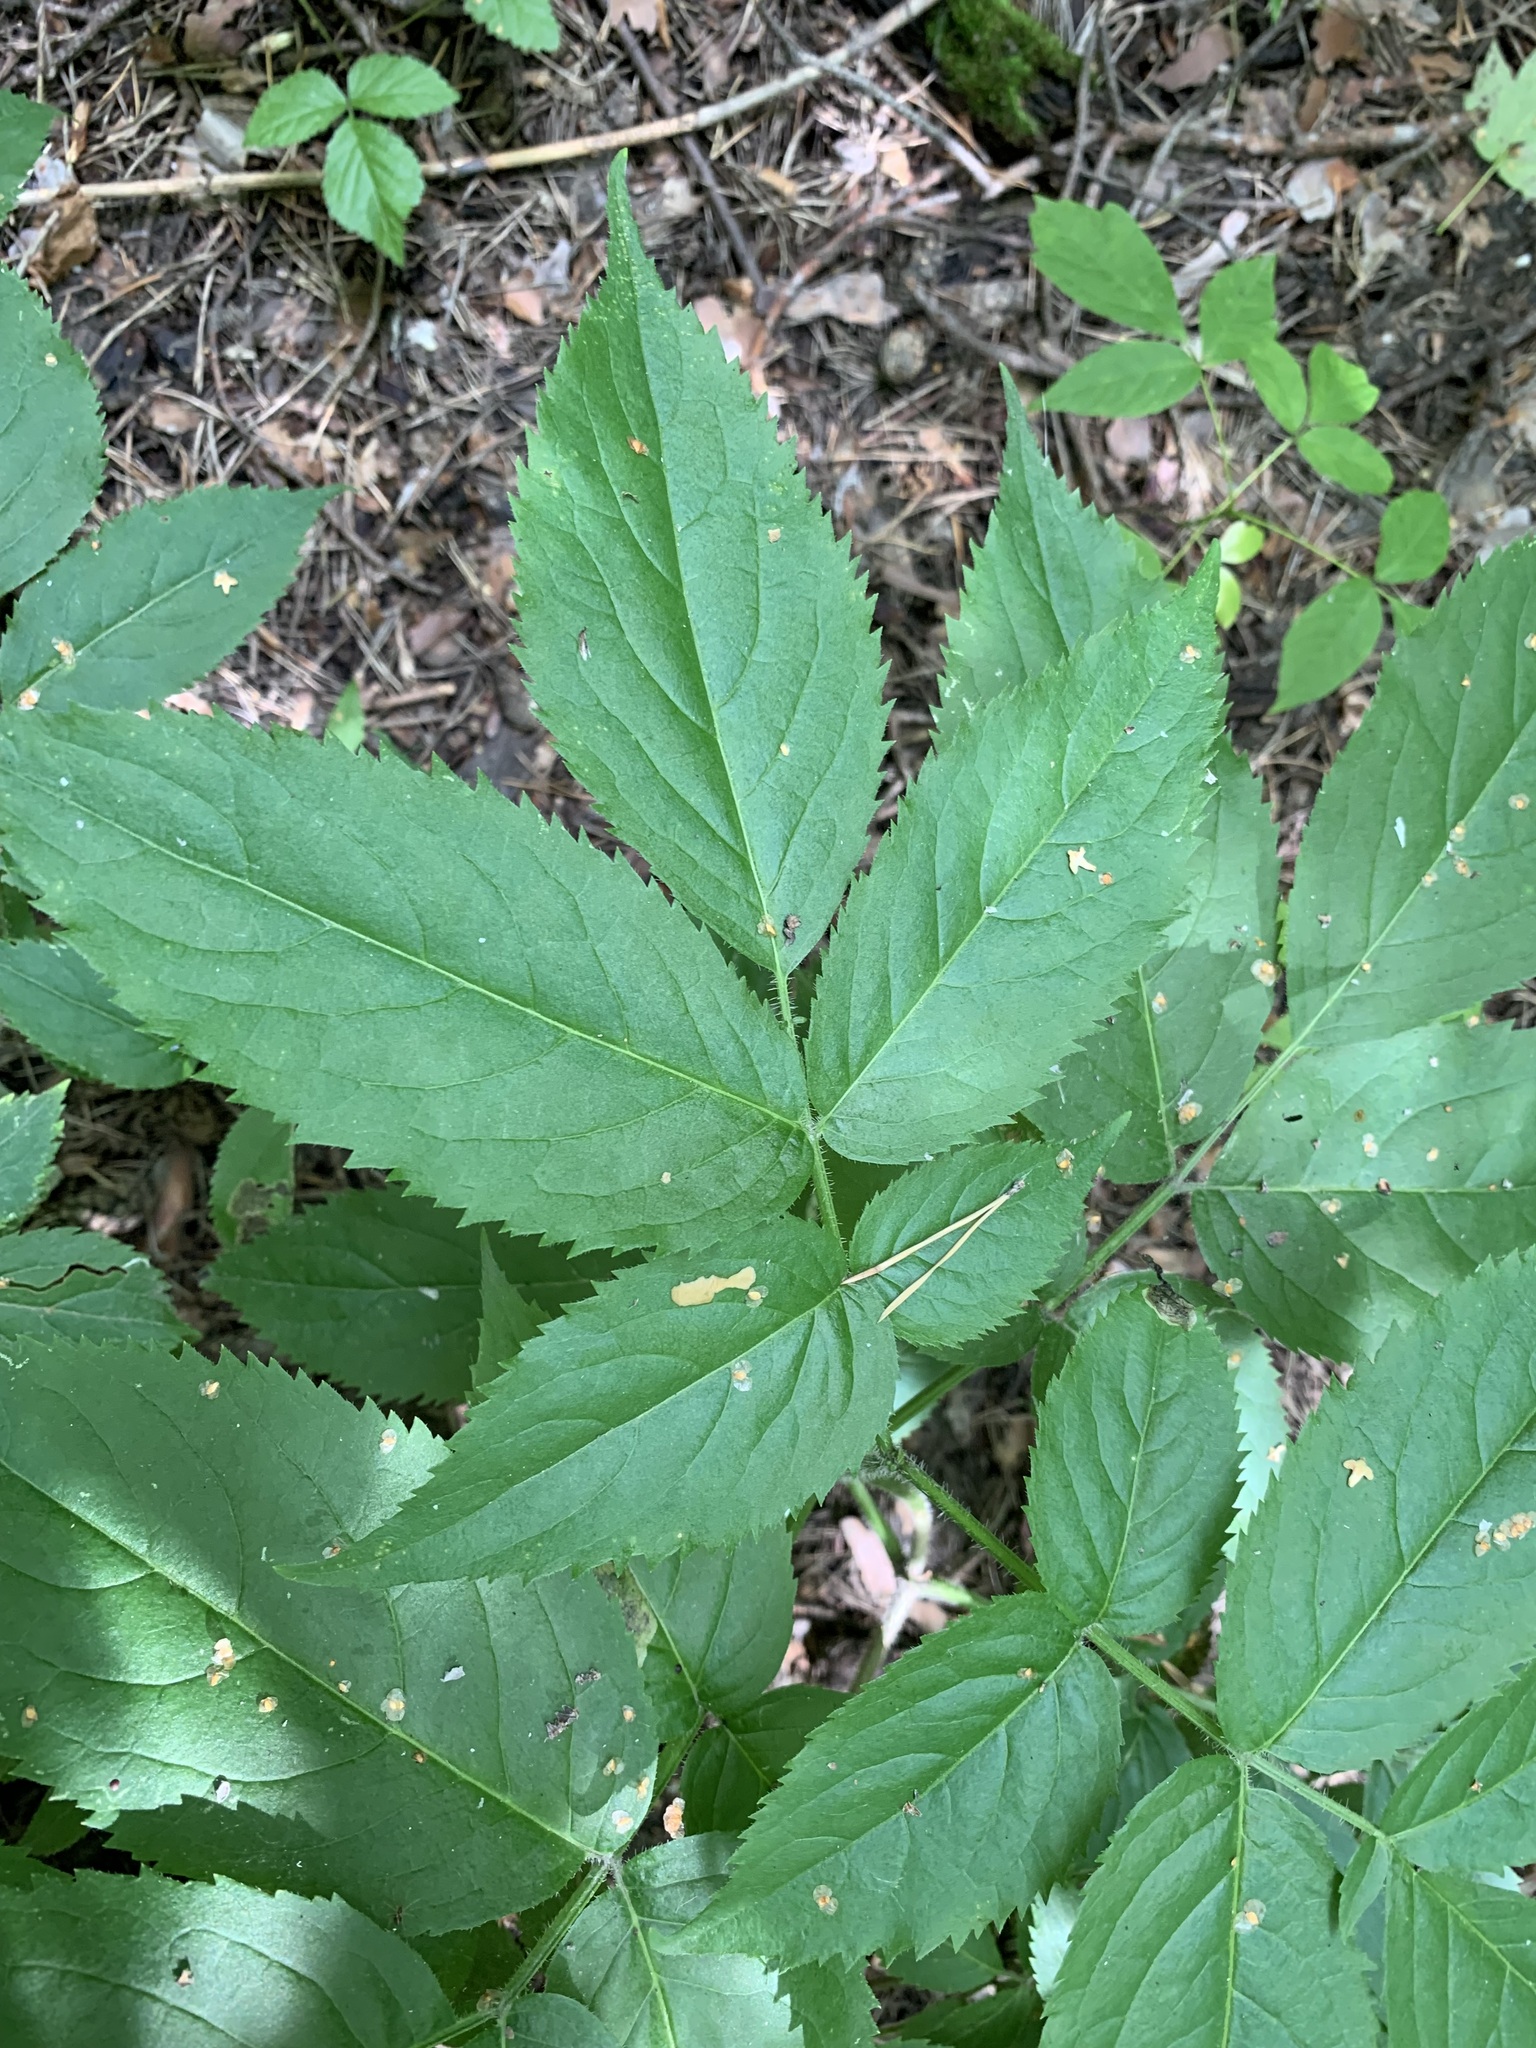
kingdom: Plantae
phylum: Tracheophyta
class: Magnoliopsida
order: Dipsacales
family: Viburnaceae
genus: Sambucus
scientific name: Sambucus sibirica
